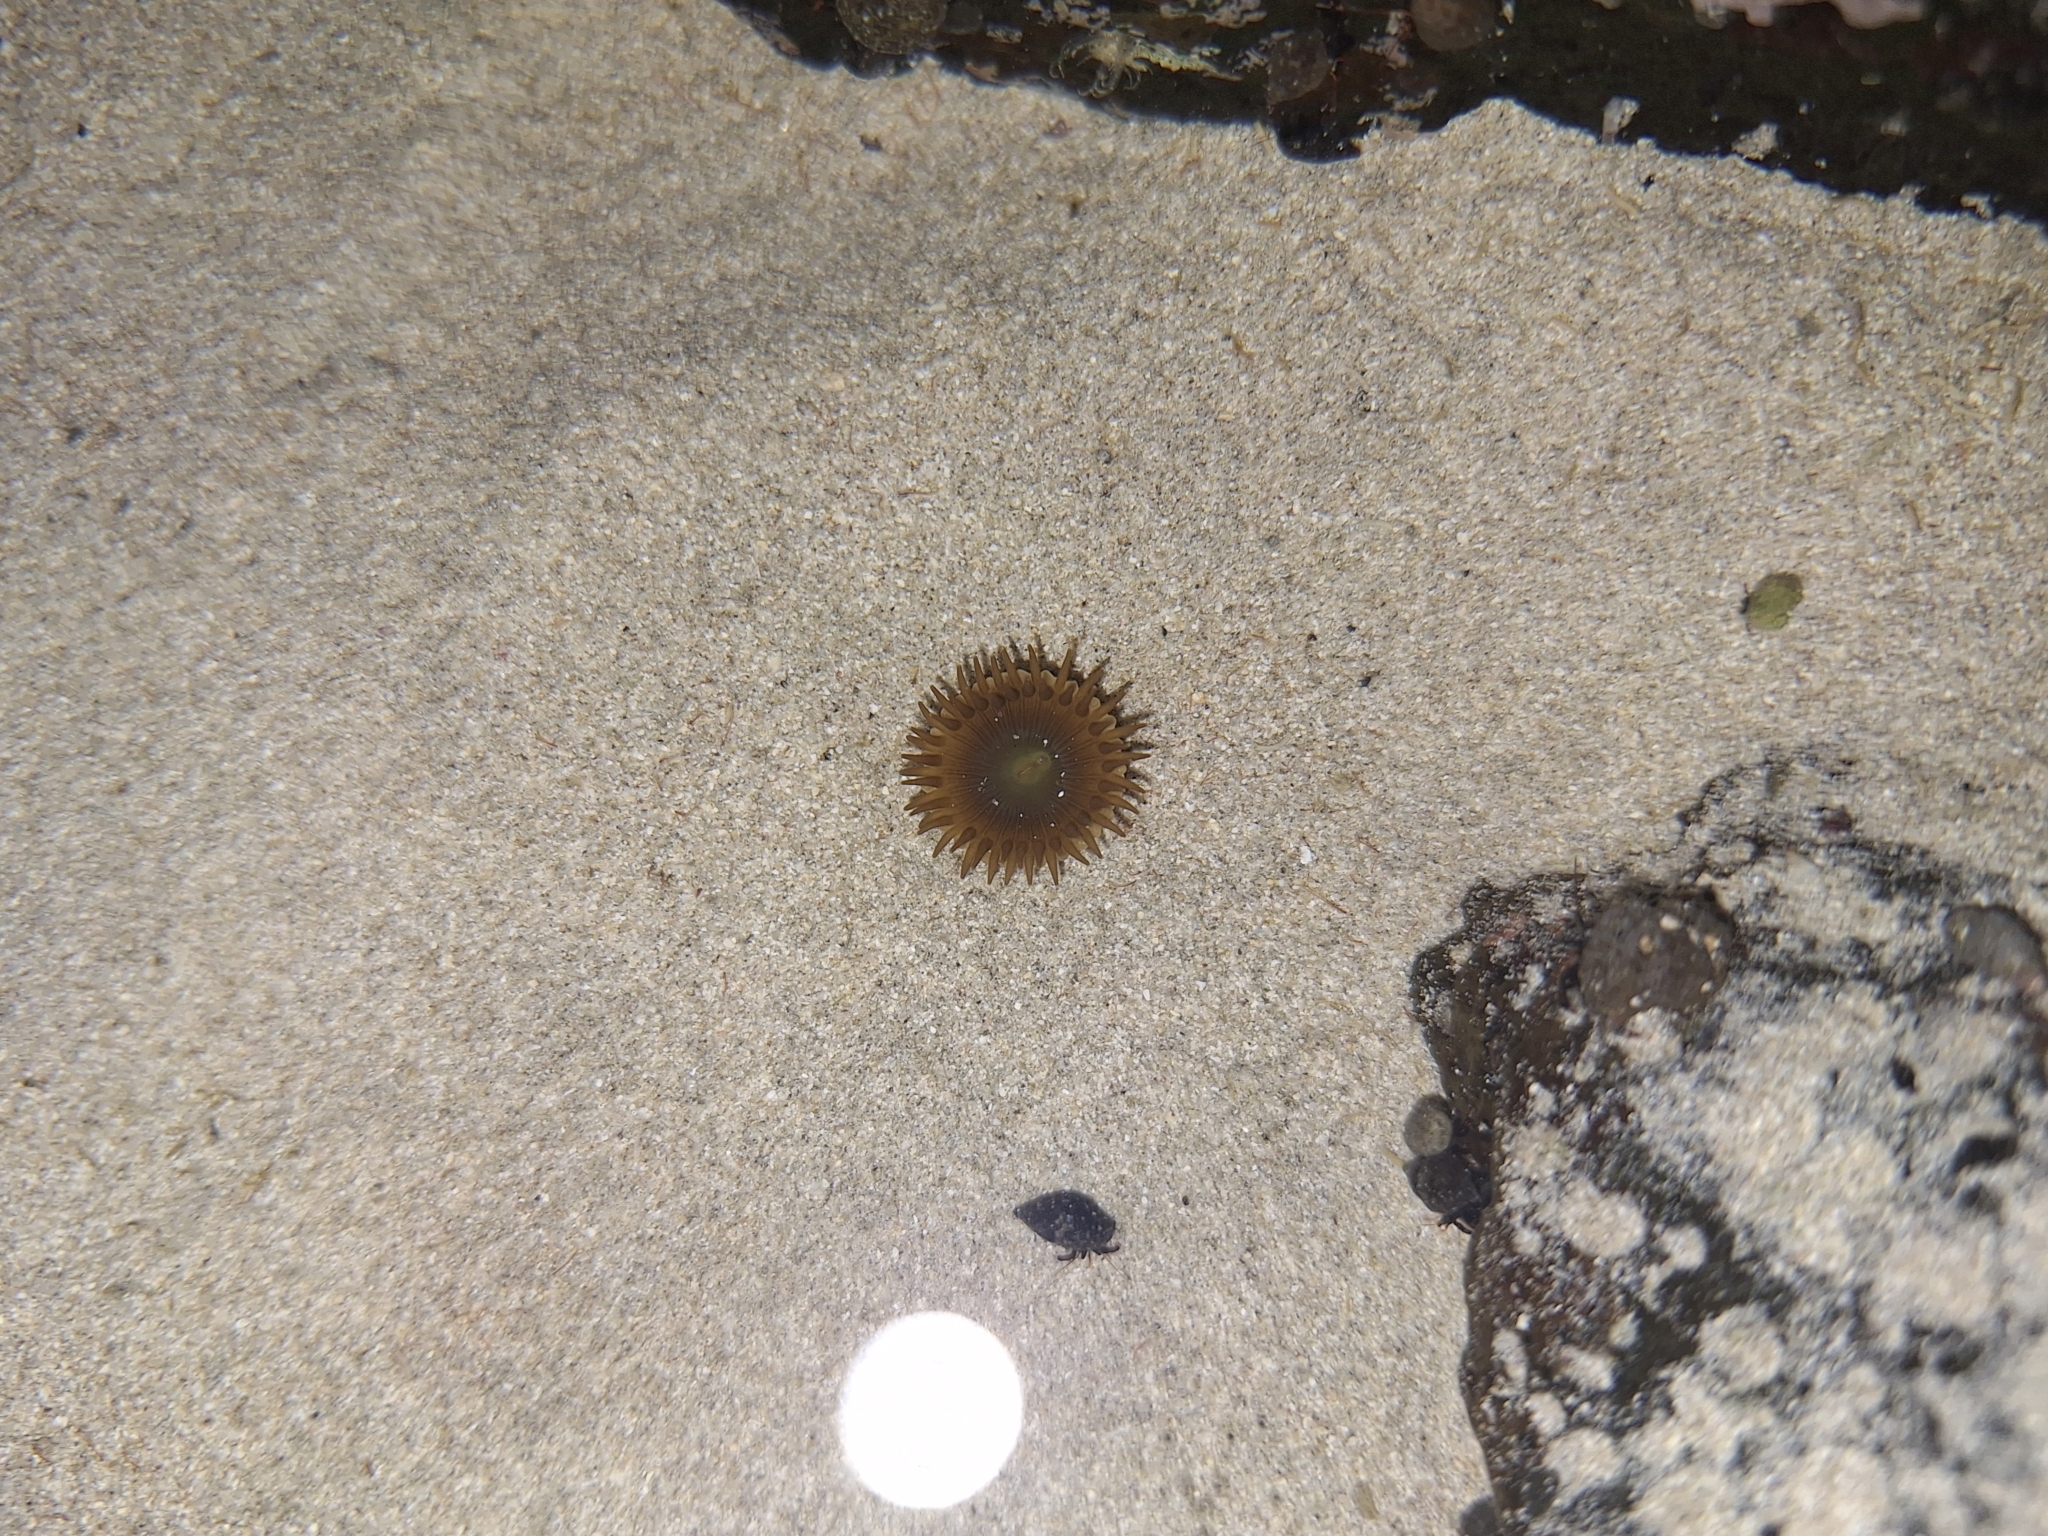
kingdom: Animalia
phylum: Cnidaria
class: Anthozoa
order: Zoantharia
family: Sphenopidae
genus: Palythoa
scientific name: Palythoa mutuki
